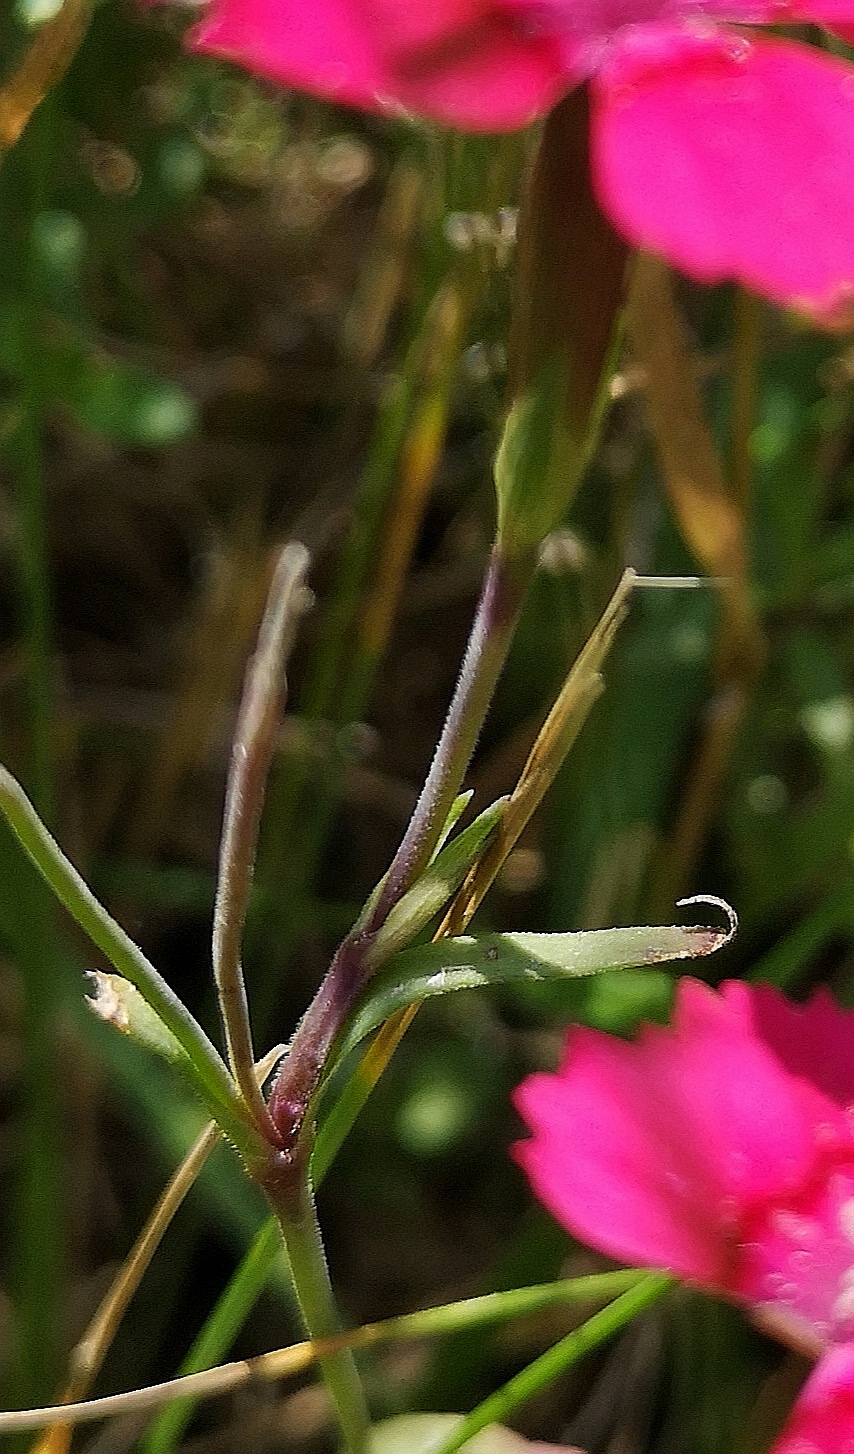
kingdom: Plantae
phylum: Tracheophyta
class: Magnoliopsida
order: Caryophyllales
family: Caryophyllaceae
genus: Dianthus
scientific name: Dianthus deltoides
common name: Maiden pink
